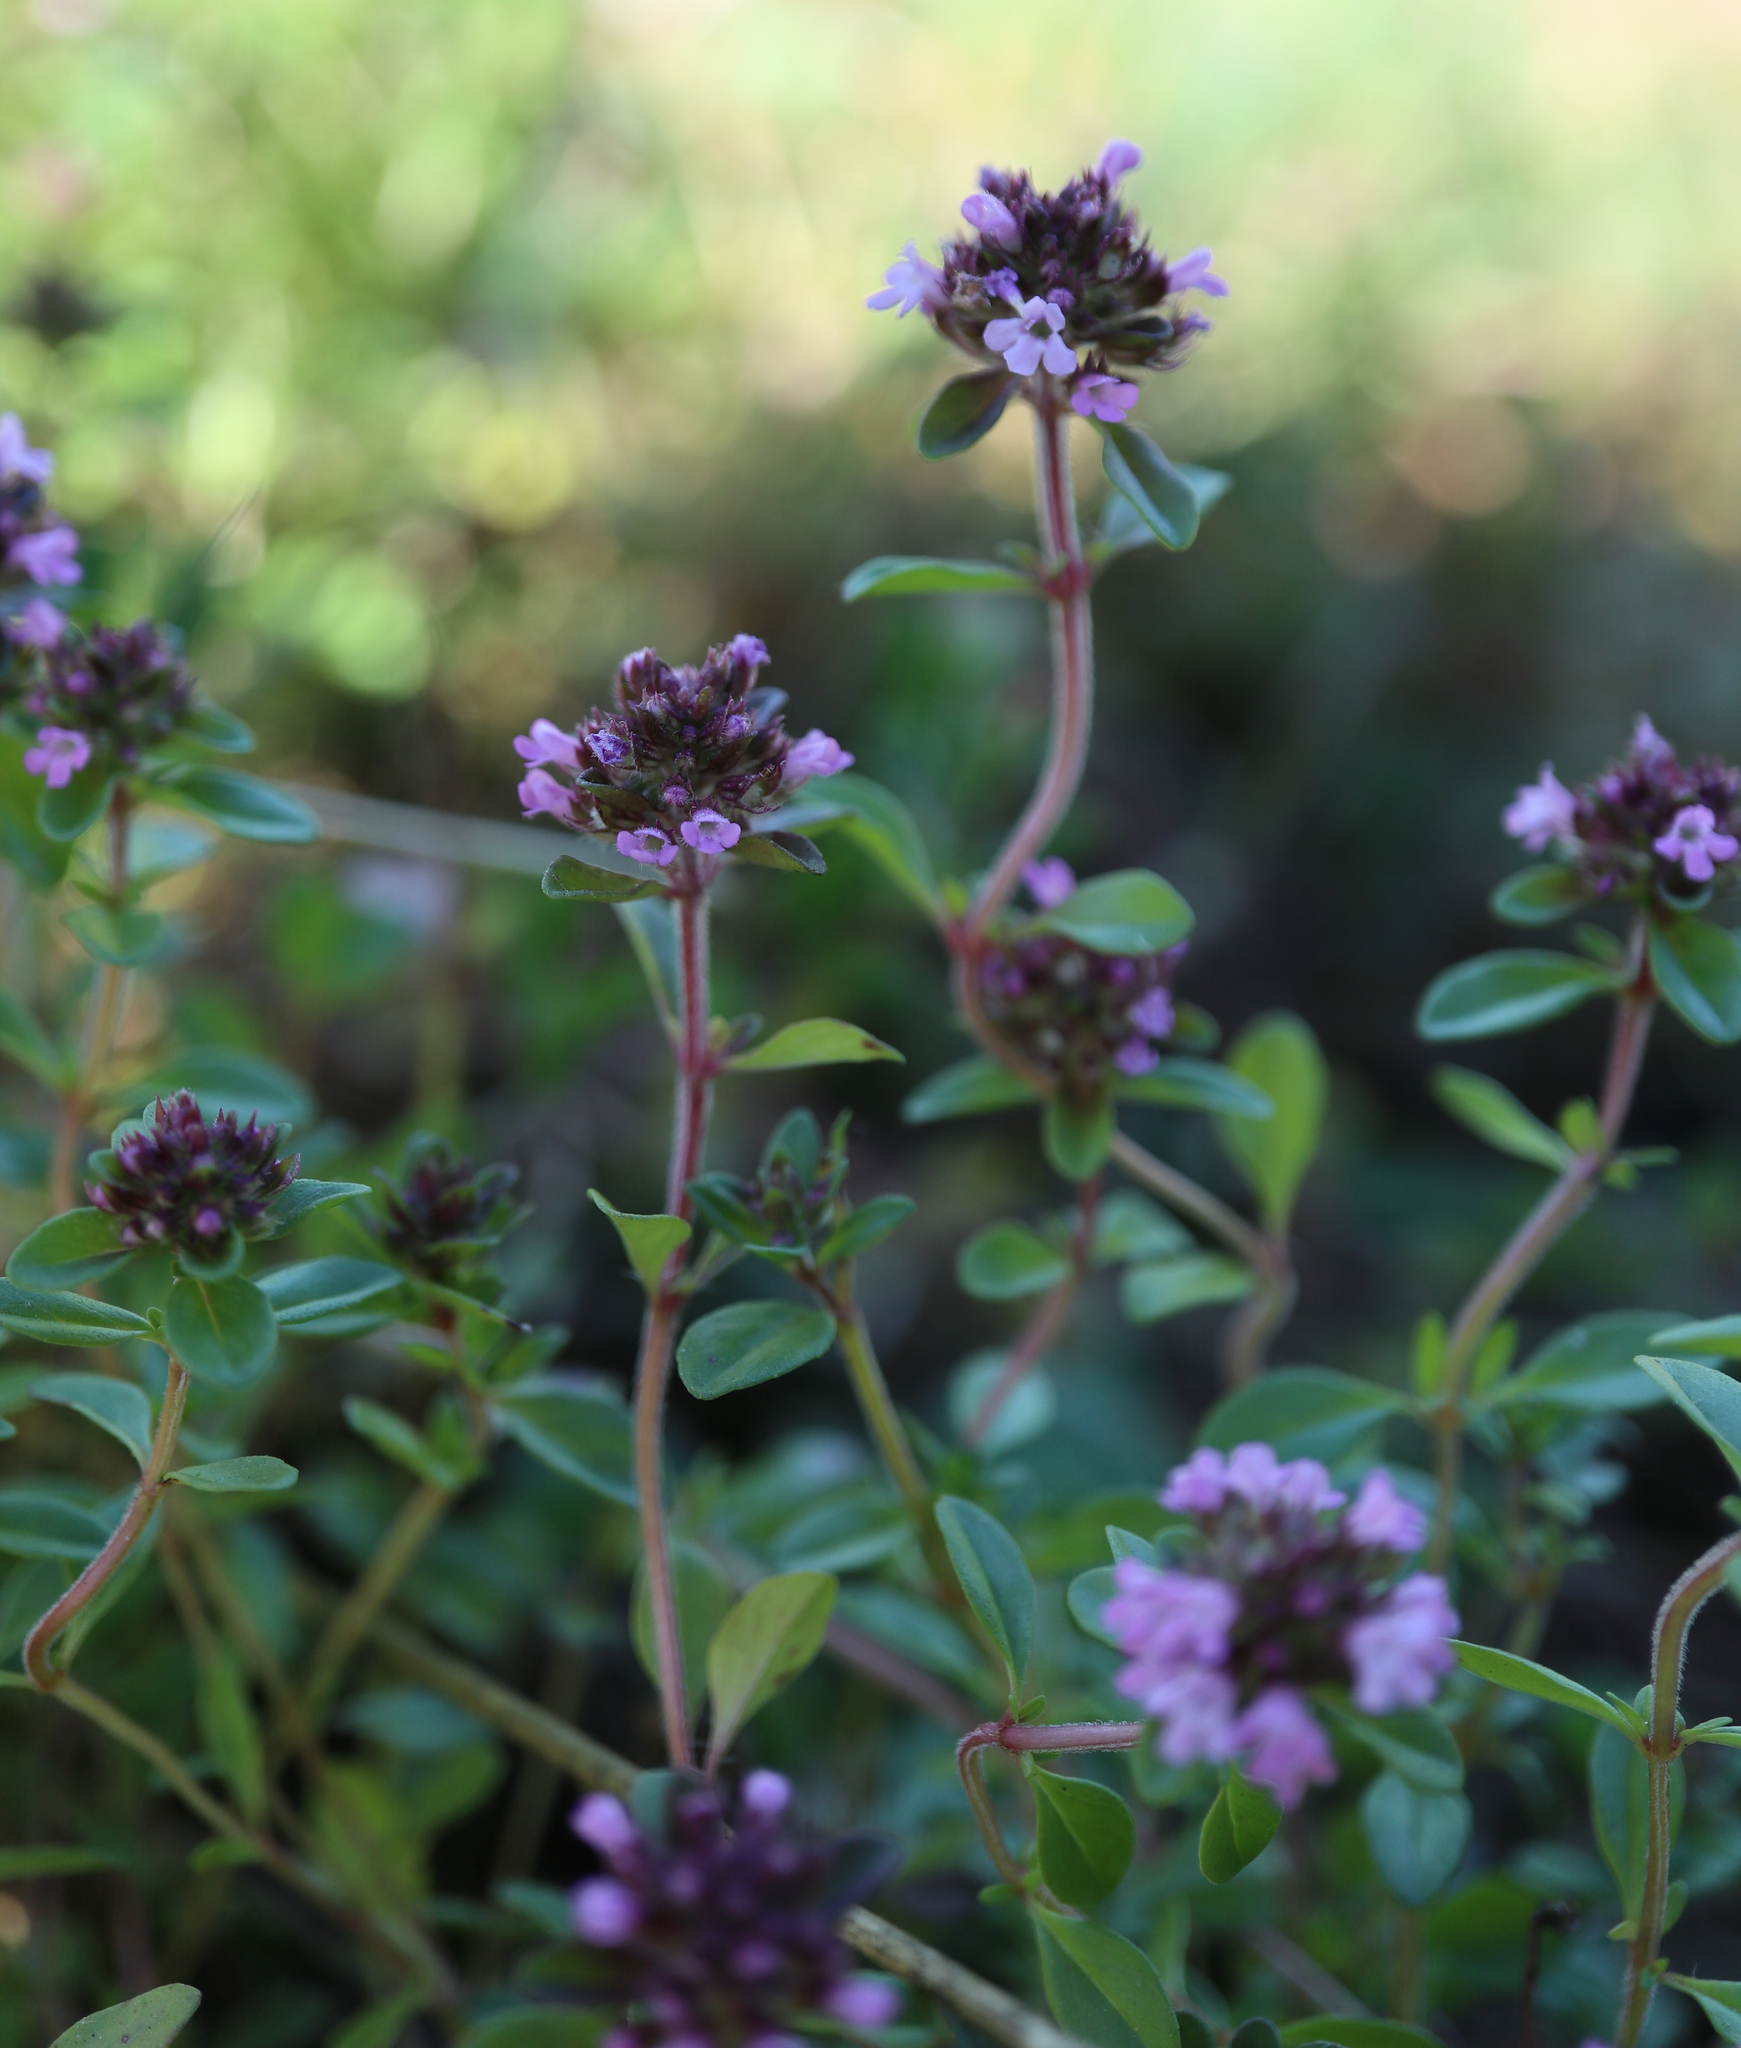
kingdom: Plantae
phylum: Tracheophyta
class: Magnoliopsida
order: Lamiales
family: Lamiaceae
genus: Thymus
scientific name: Thymus pulegioides
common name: Large thyme
